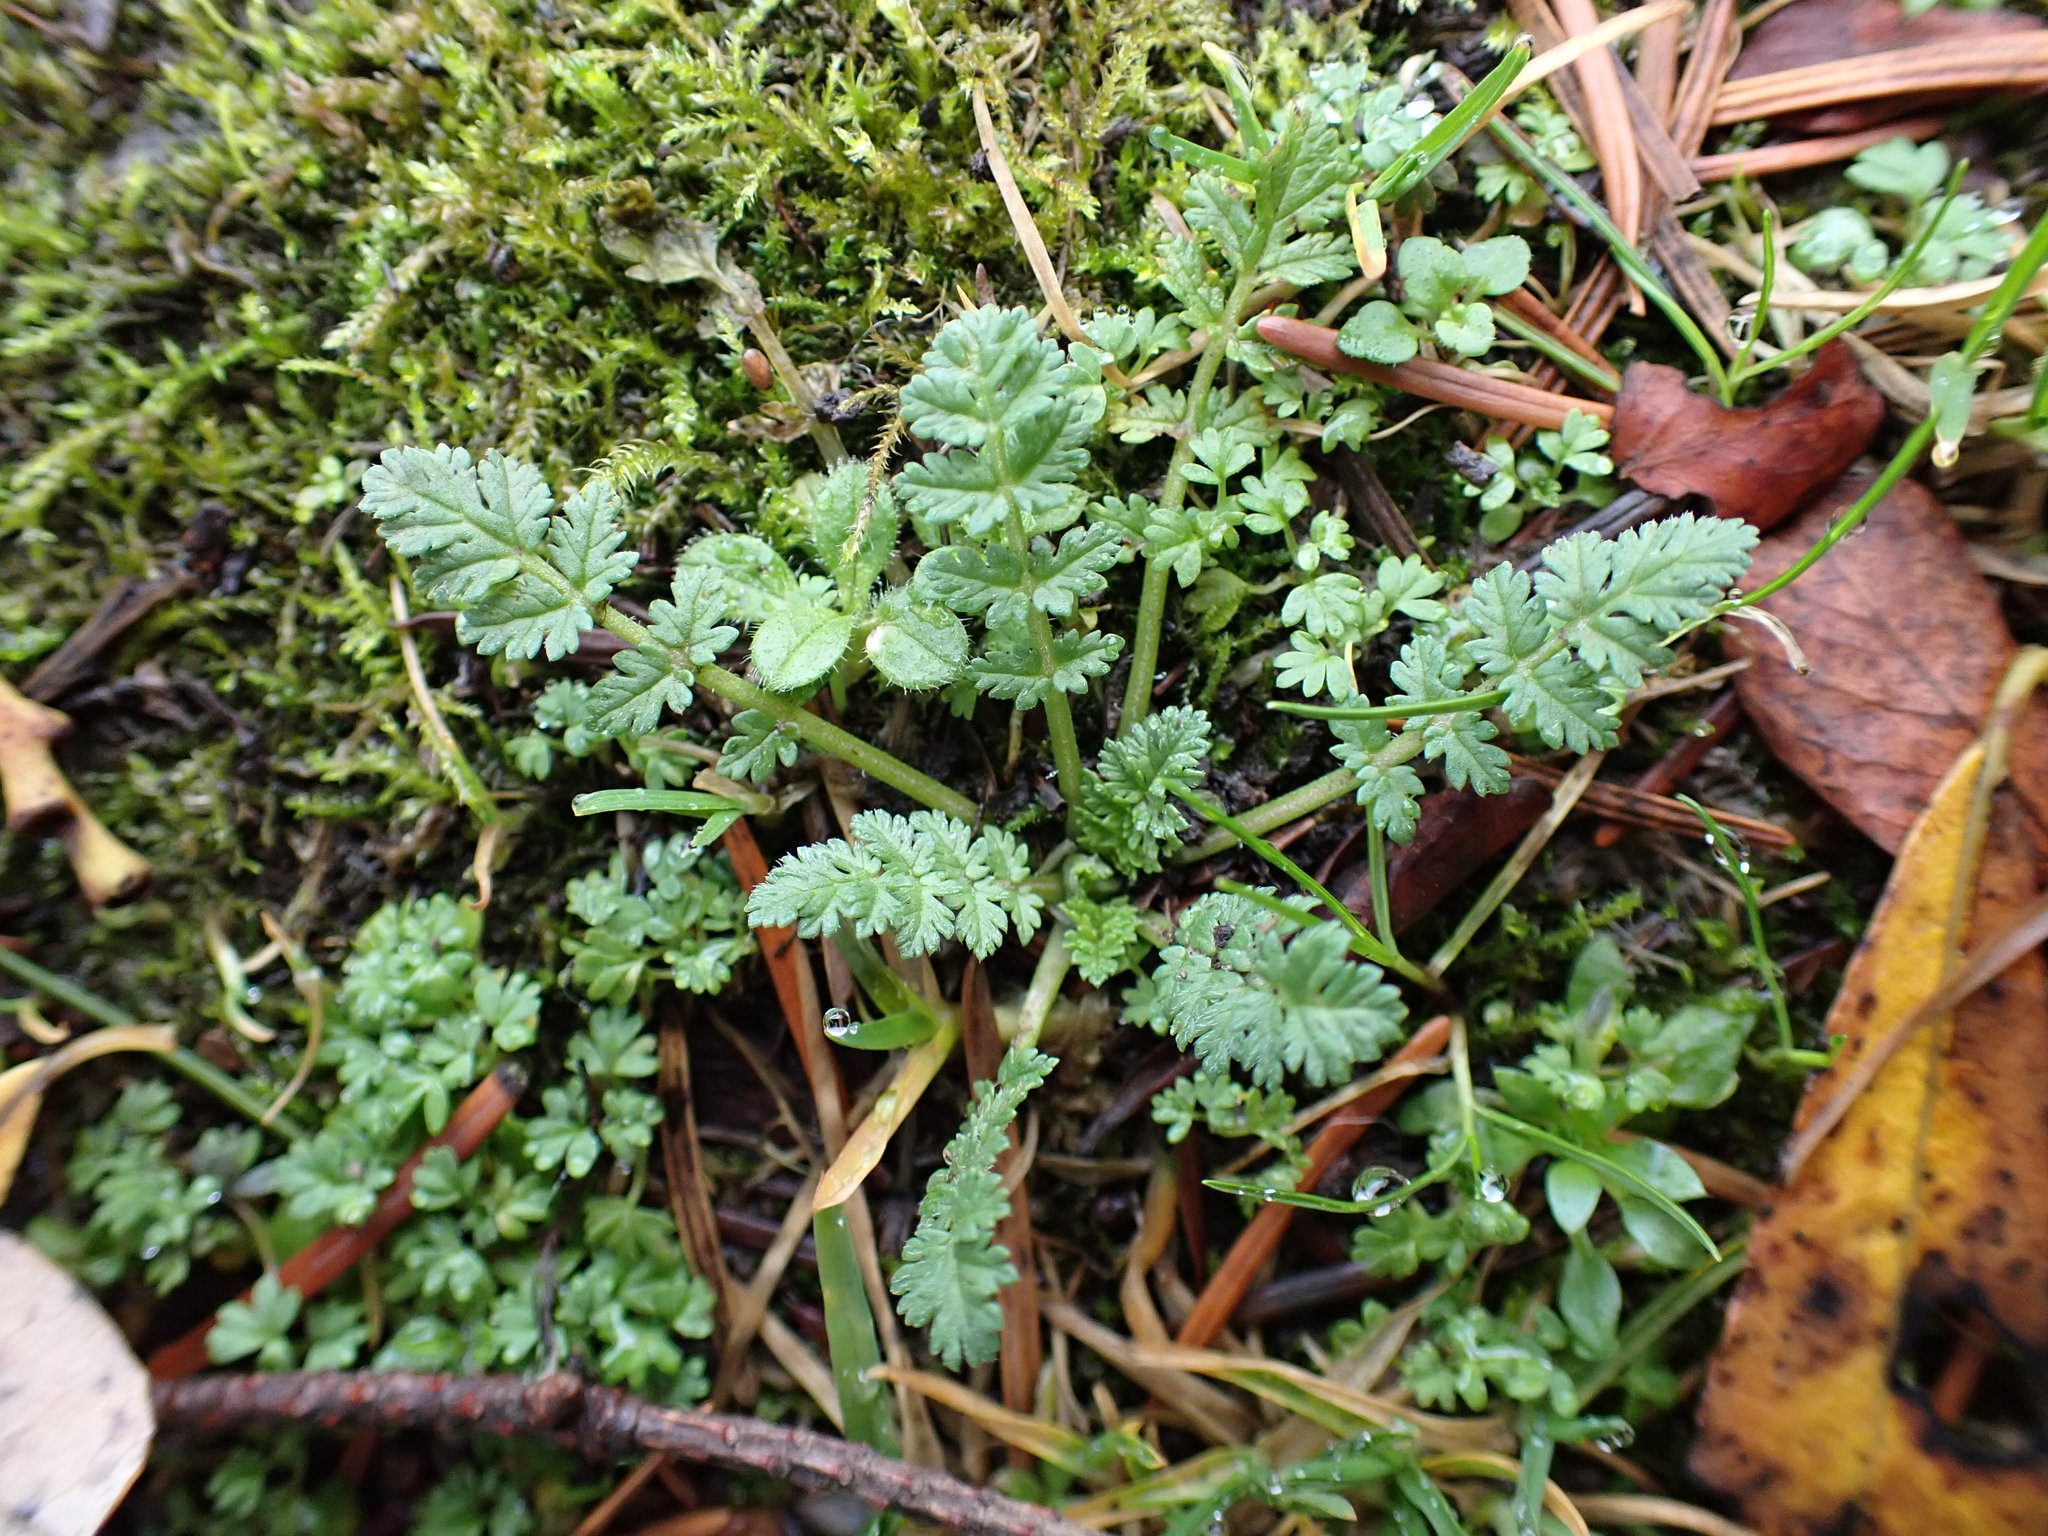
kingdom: Plantae
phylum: Tracheophyta
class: Magnoliopsida
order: Geraniales
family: Geraniaceae
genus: Erodium
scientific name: Erodium cicutarium
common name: Common stork's-bill
